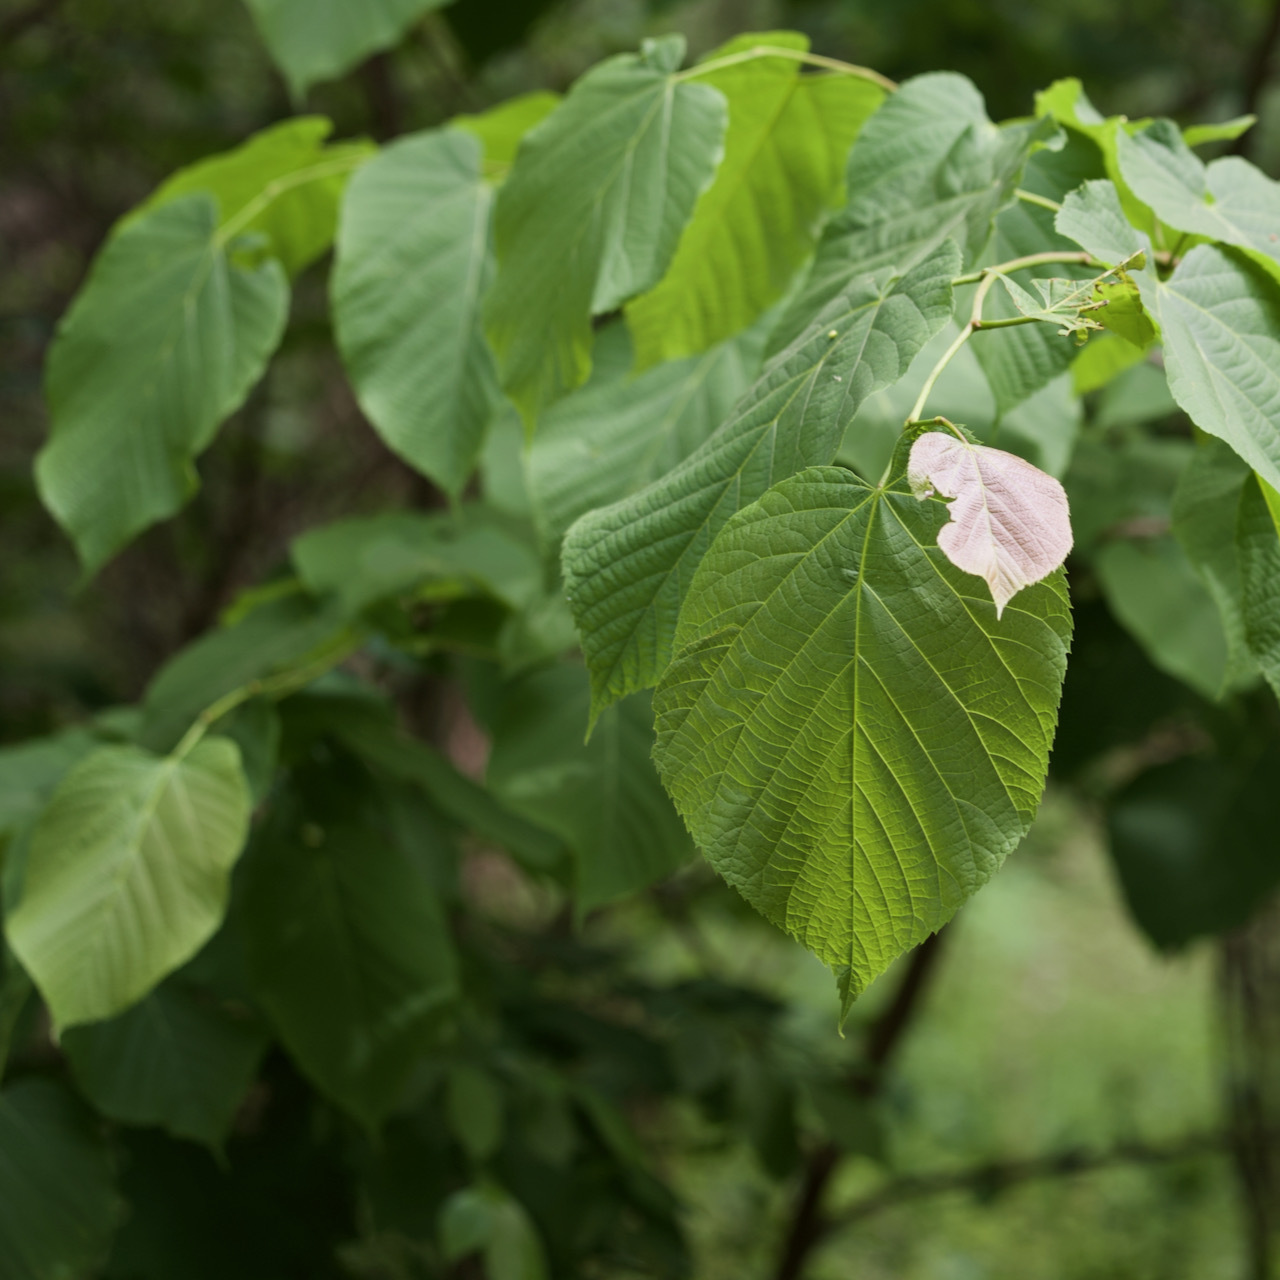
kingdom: Plantae
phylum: Tracheophyta
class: Magnoliopsida
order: Malvales
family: Malvaceae
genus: Tilia
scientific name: Tilia americana
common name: Basswood
